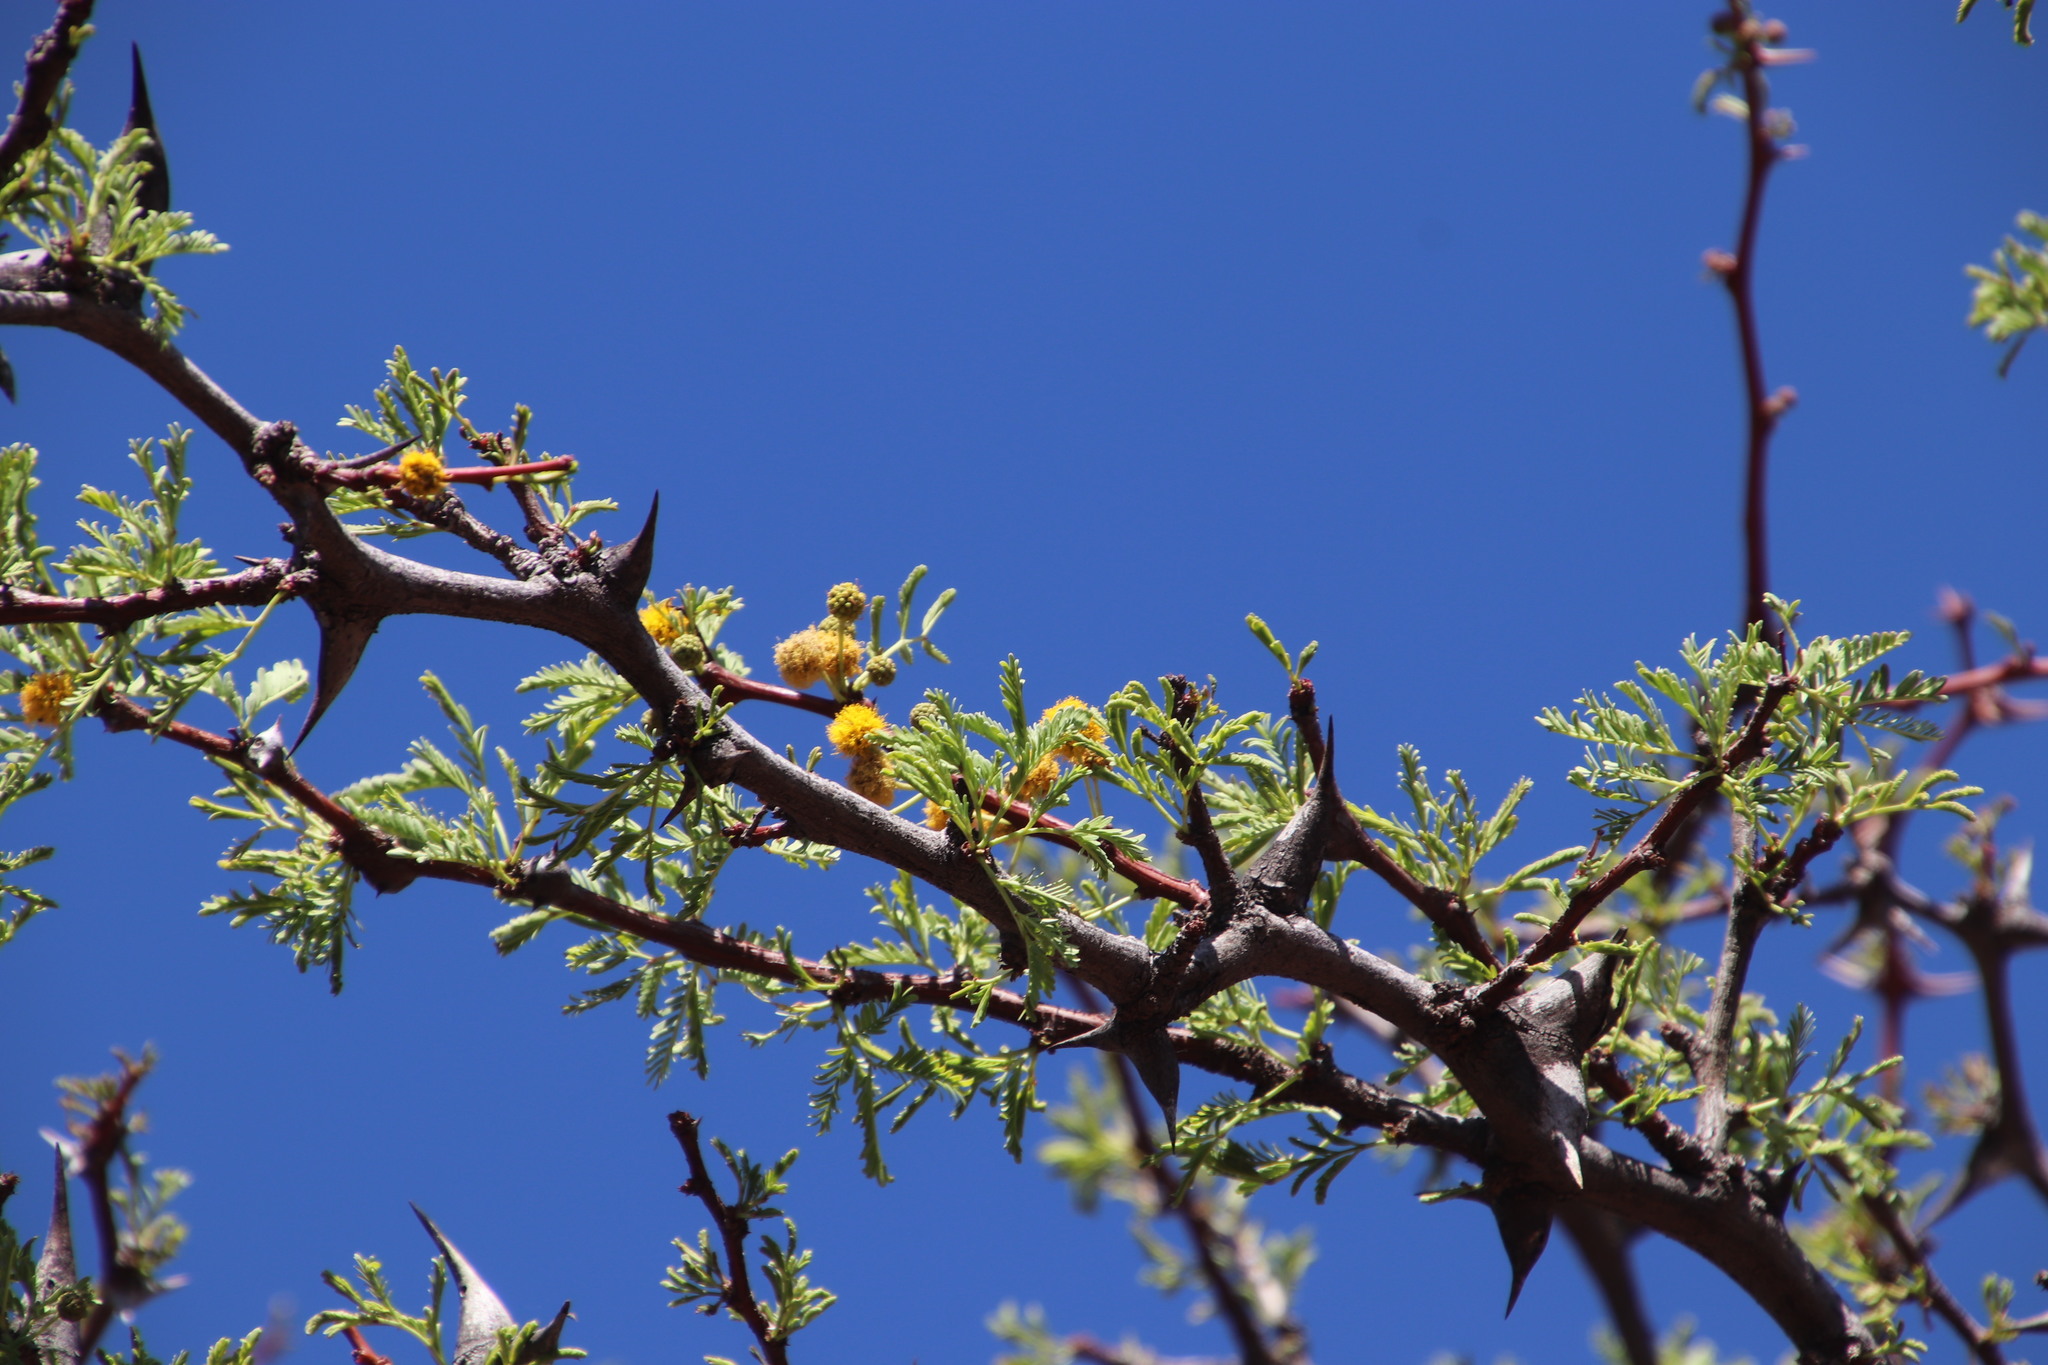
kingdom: Plantae
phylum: Tracheophyta
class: Magnoliopsida
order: Fabales
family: Fabaceae
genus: Vachellia
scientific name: Vachellia erioloba
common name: Camel thorn
